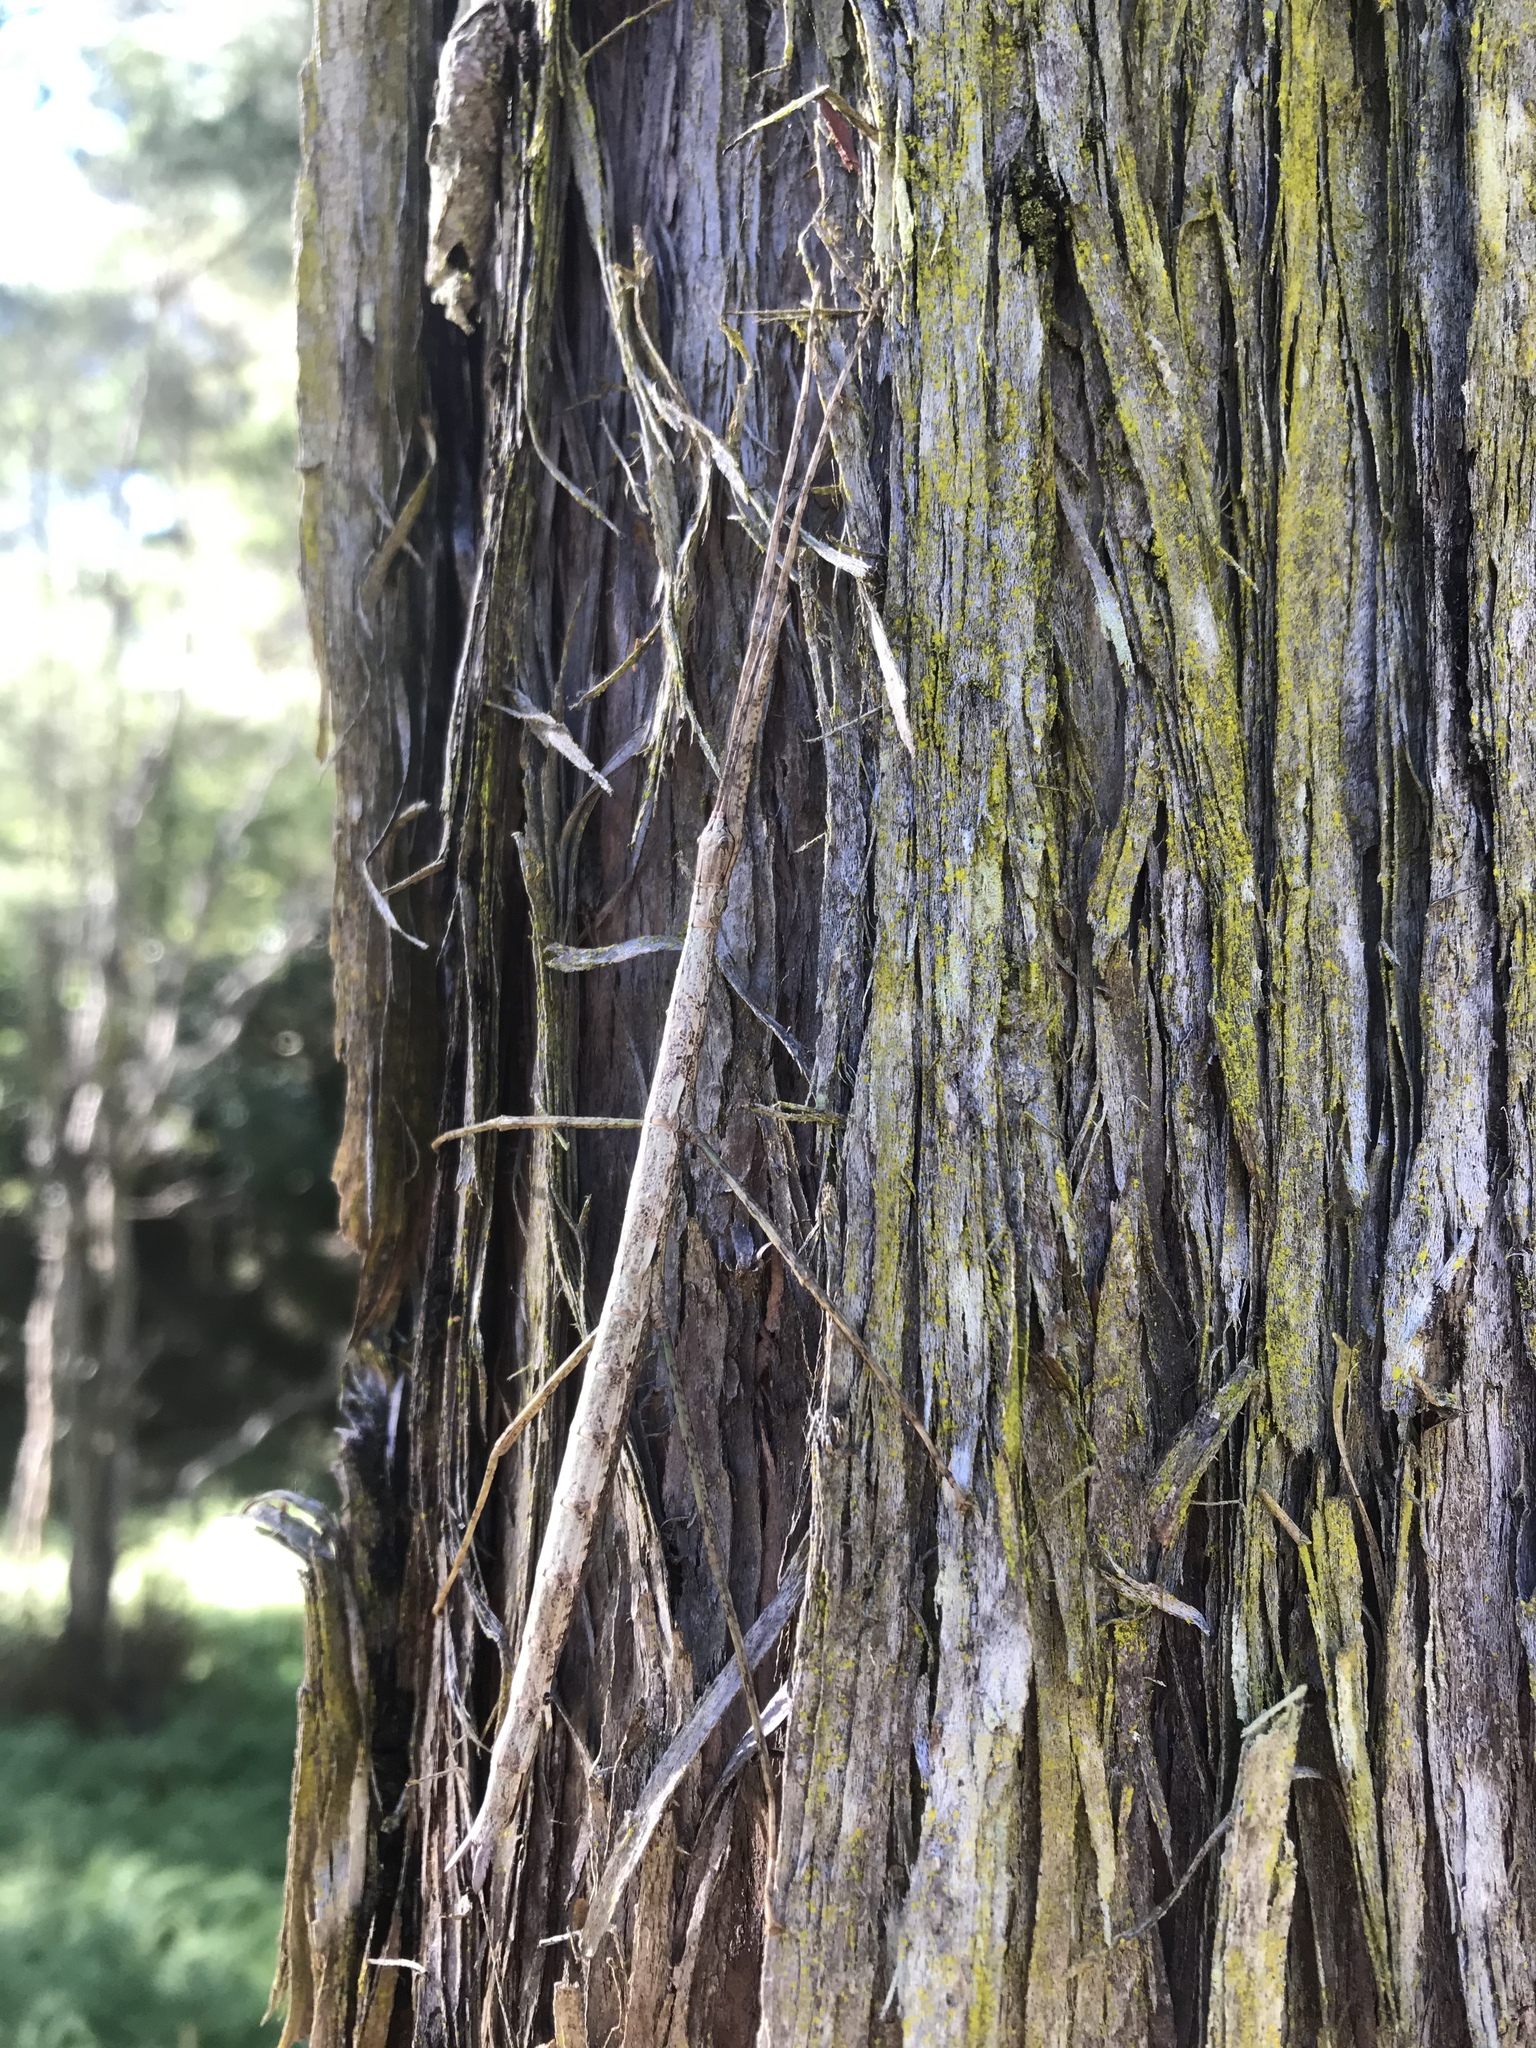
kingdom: Animalia
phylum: Arthropoda
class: Insecta
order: Phasmida
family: Phasmatidae
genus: Clitarchus
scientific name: Clitarchus hookeri
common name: Smooth stick insect
